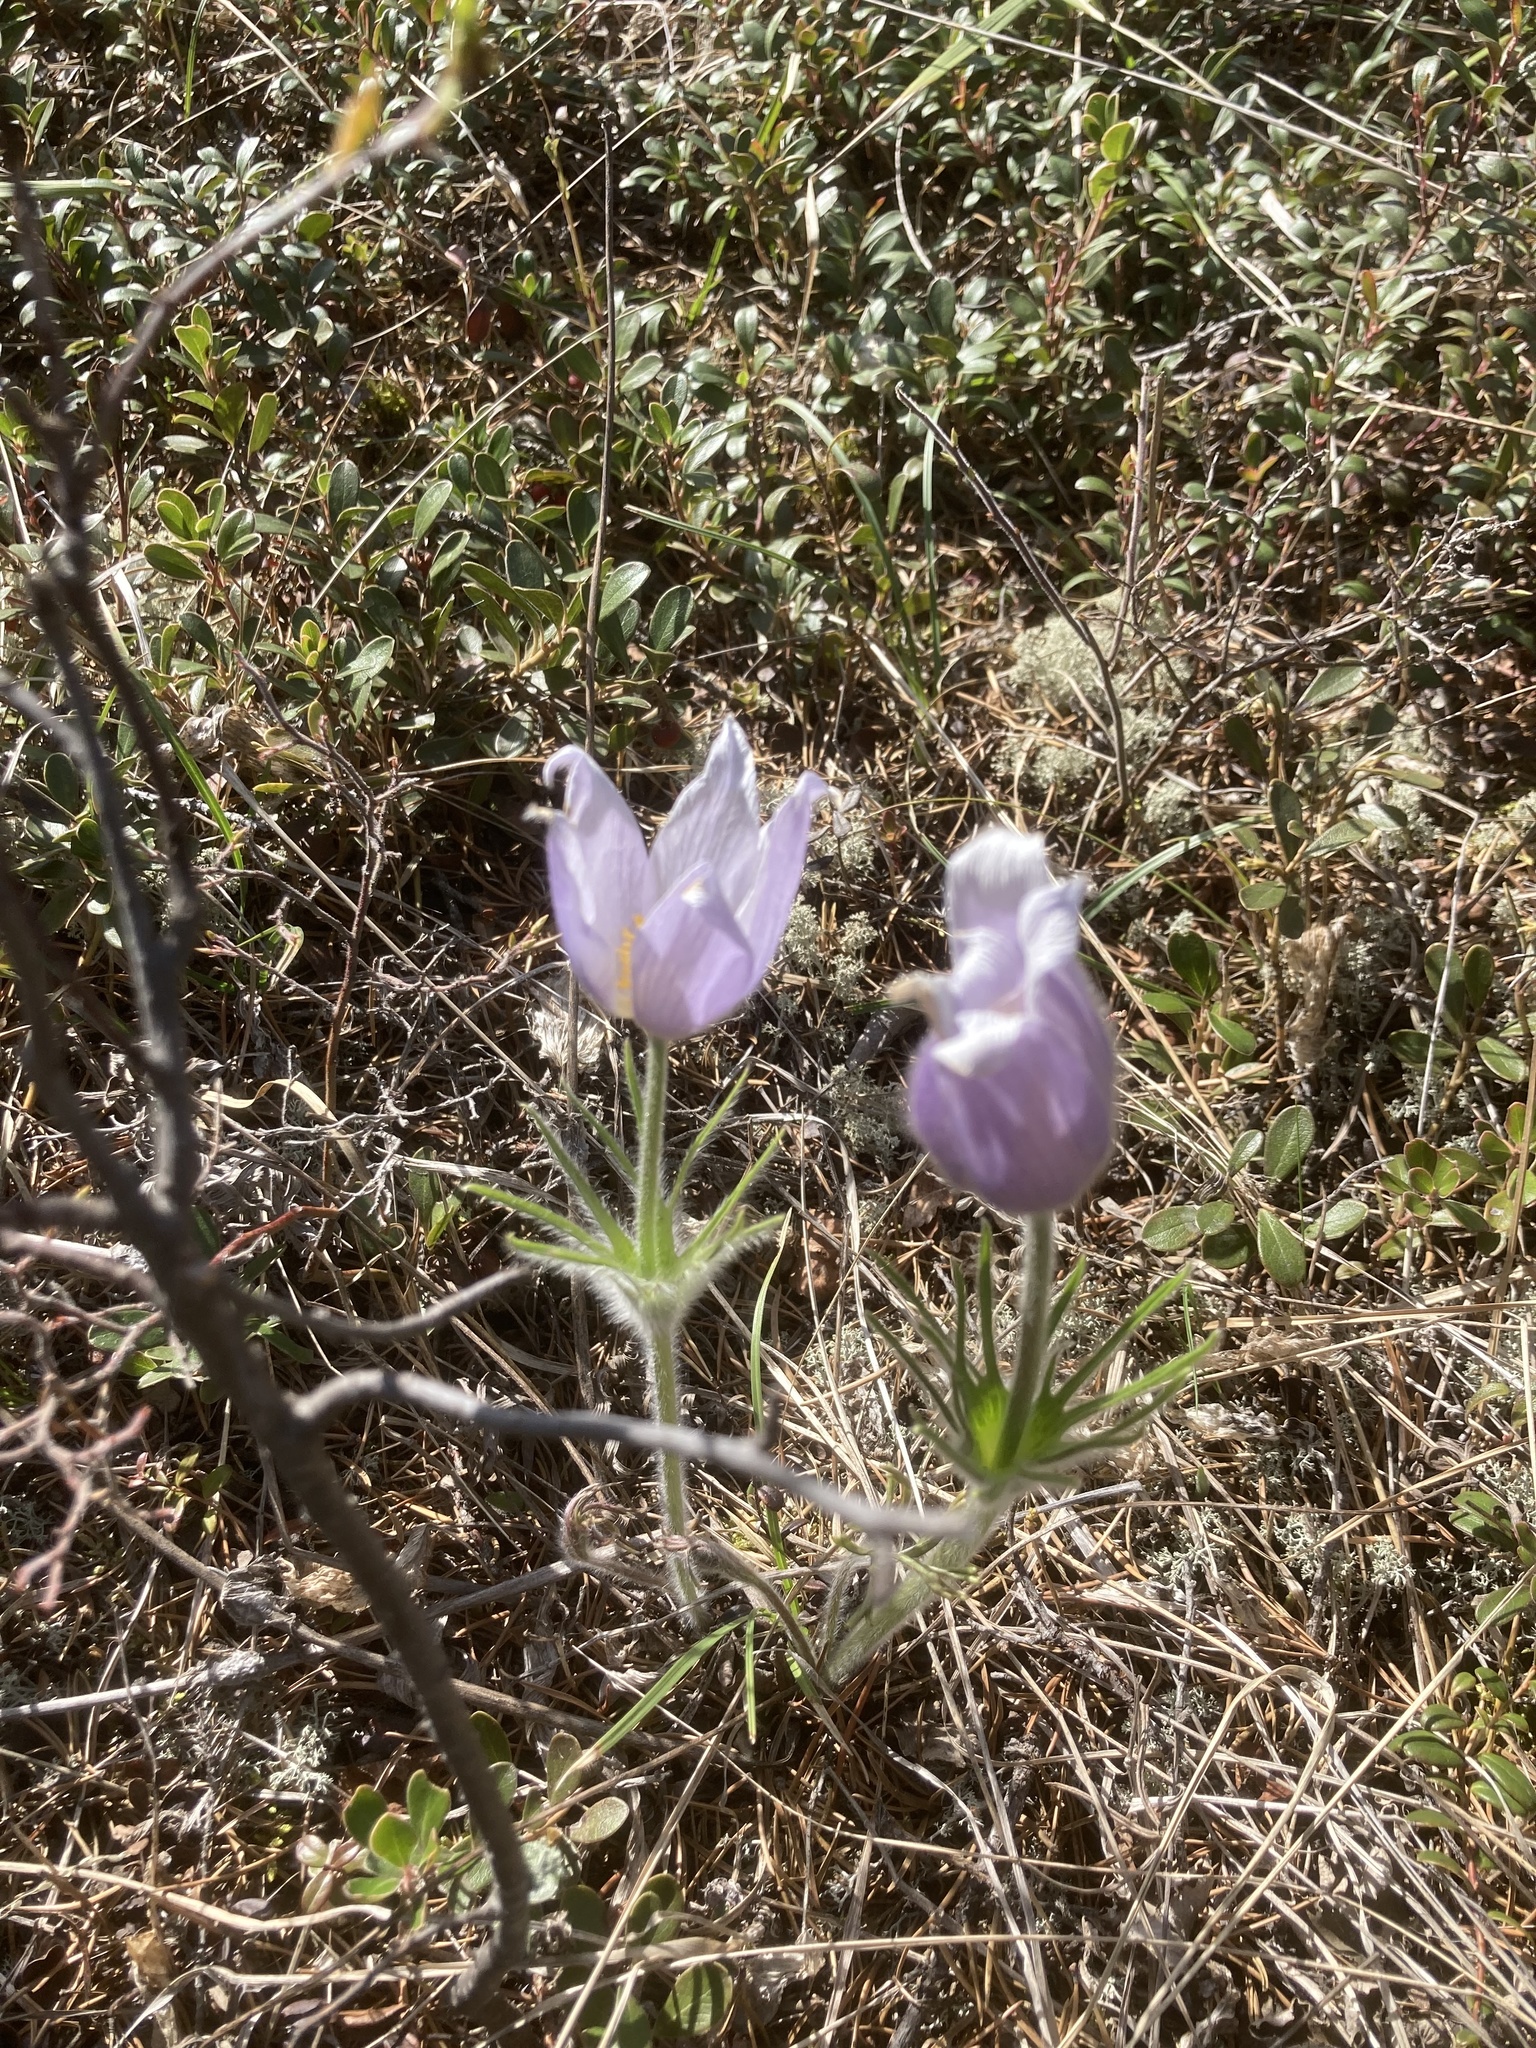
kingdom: Plantae
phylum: Tracheophyta
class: Magnoliopsida
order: Ranunculales
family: Ranunculaceae
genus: Pulsatilla
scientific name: Pulsatilla nuttalliana
